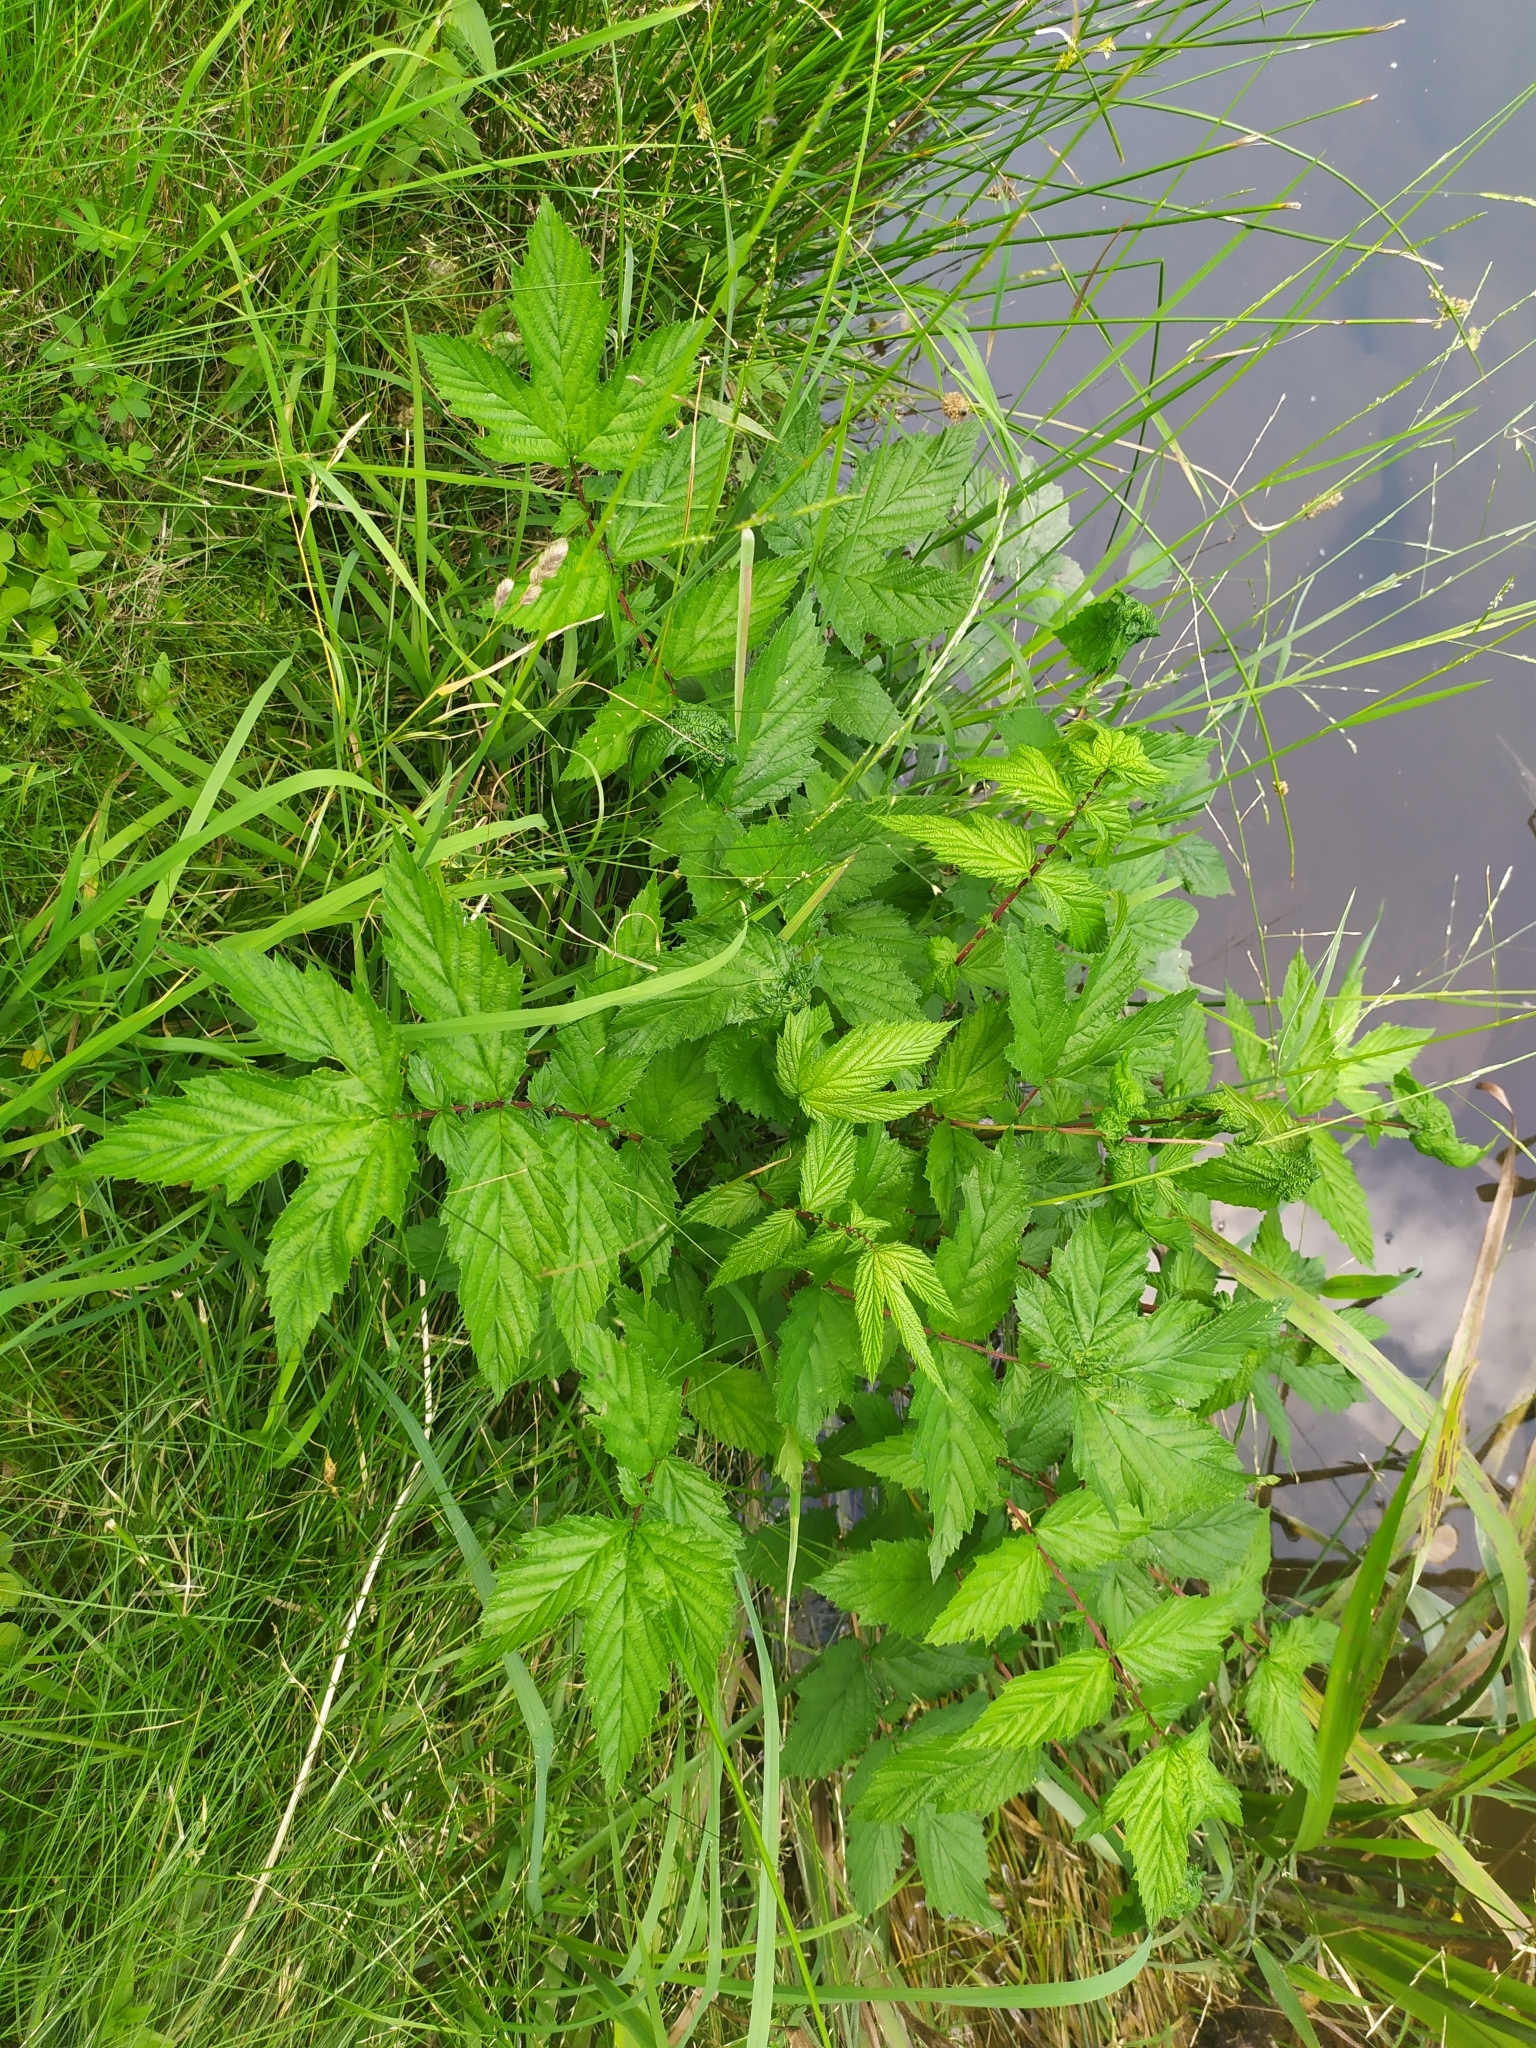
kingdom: Plantae
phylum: Tracheophyta
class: Magnoliopsida
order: Rosales
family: Rosaceae
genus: Filipendula
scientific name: Filipendula ulmaria
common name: Meadowsweet
